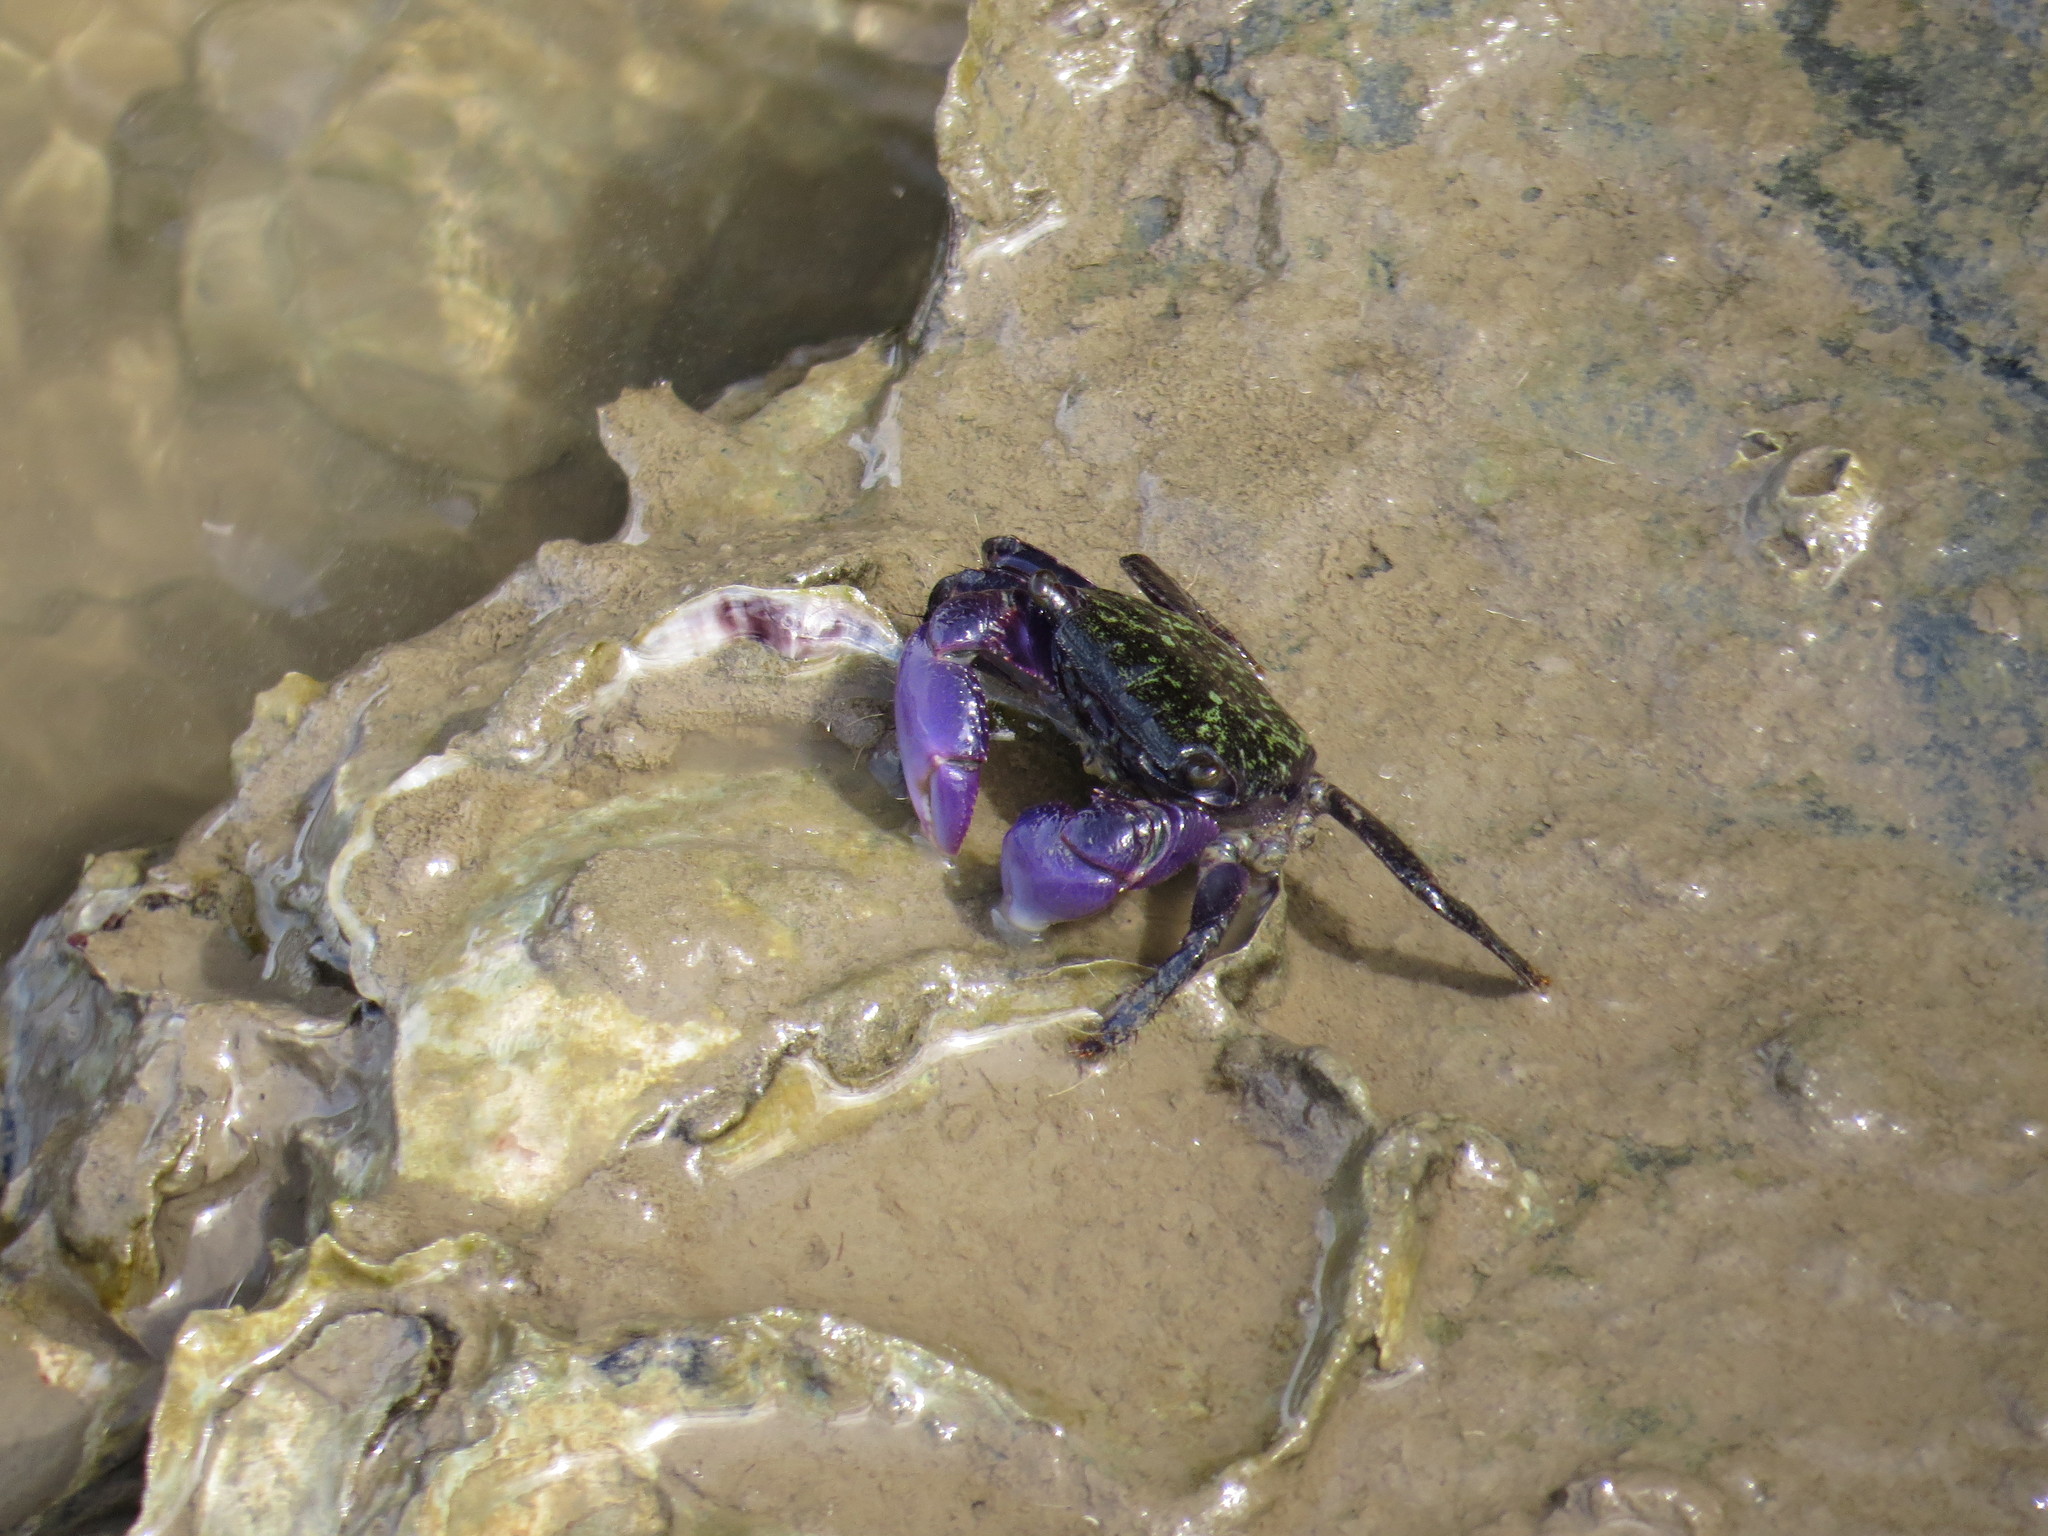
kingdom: Animalia
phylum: Arthropoda
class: Malacostraca
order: Decapoda
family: Grapsidae
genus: Metopograpsus
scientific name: Metopograpsus frontalis
